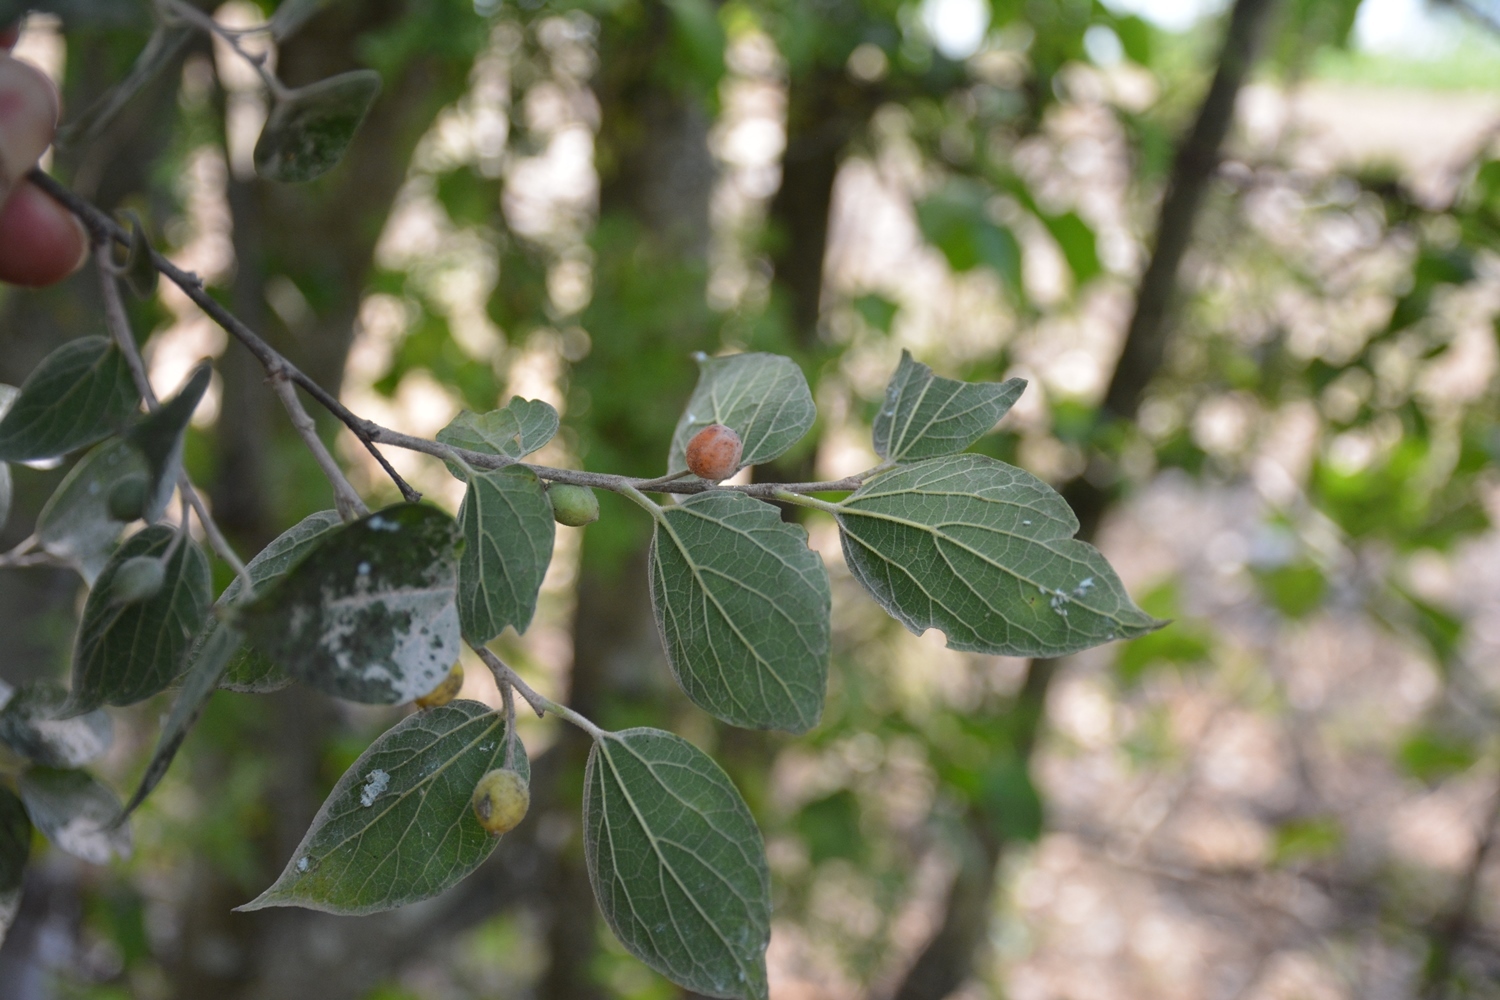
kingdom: Plantae
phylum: Tracheophyta
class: Magnoliopsida
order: Rosales
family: Rhamnaceae
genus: Hovenia
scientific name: Hovenia
